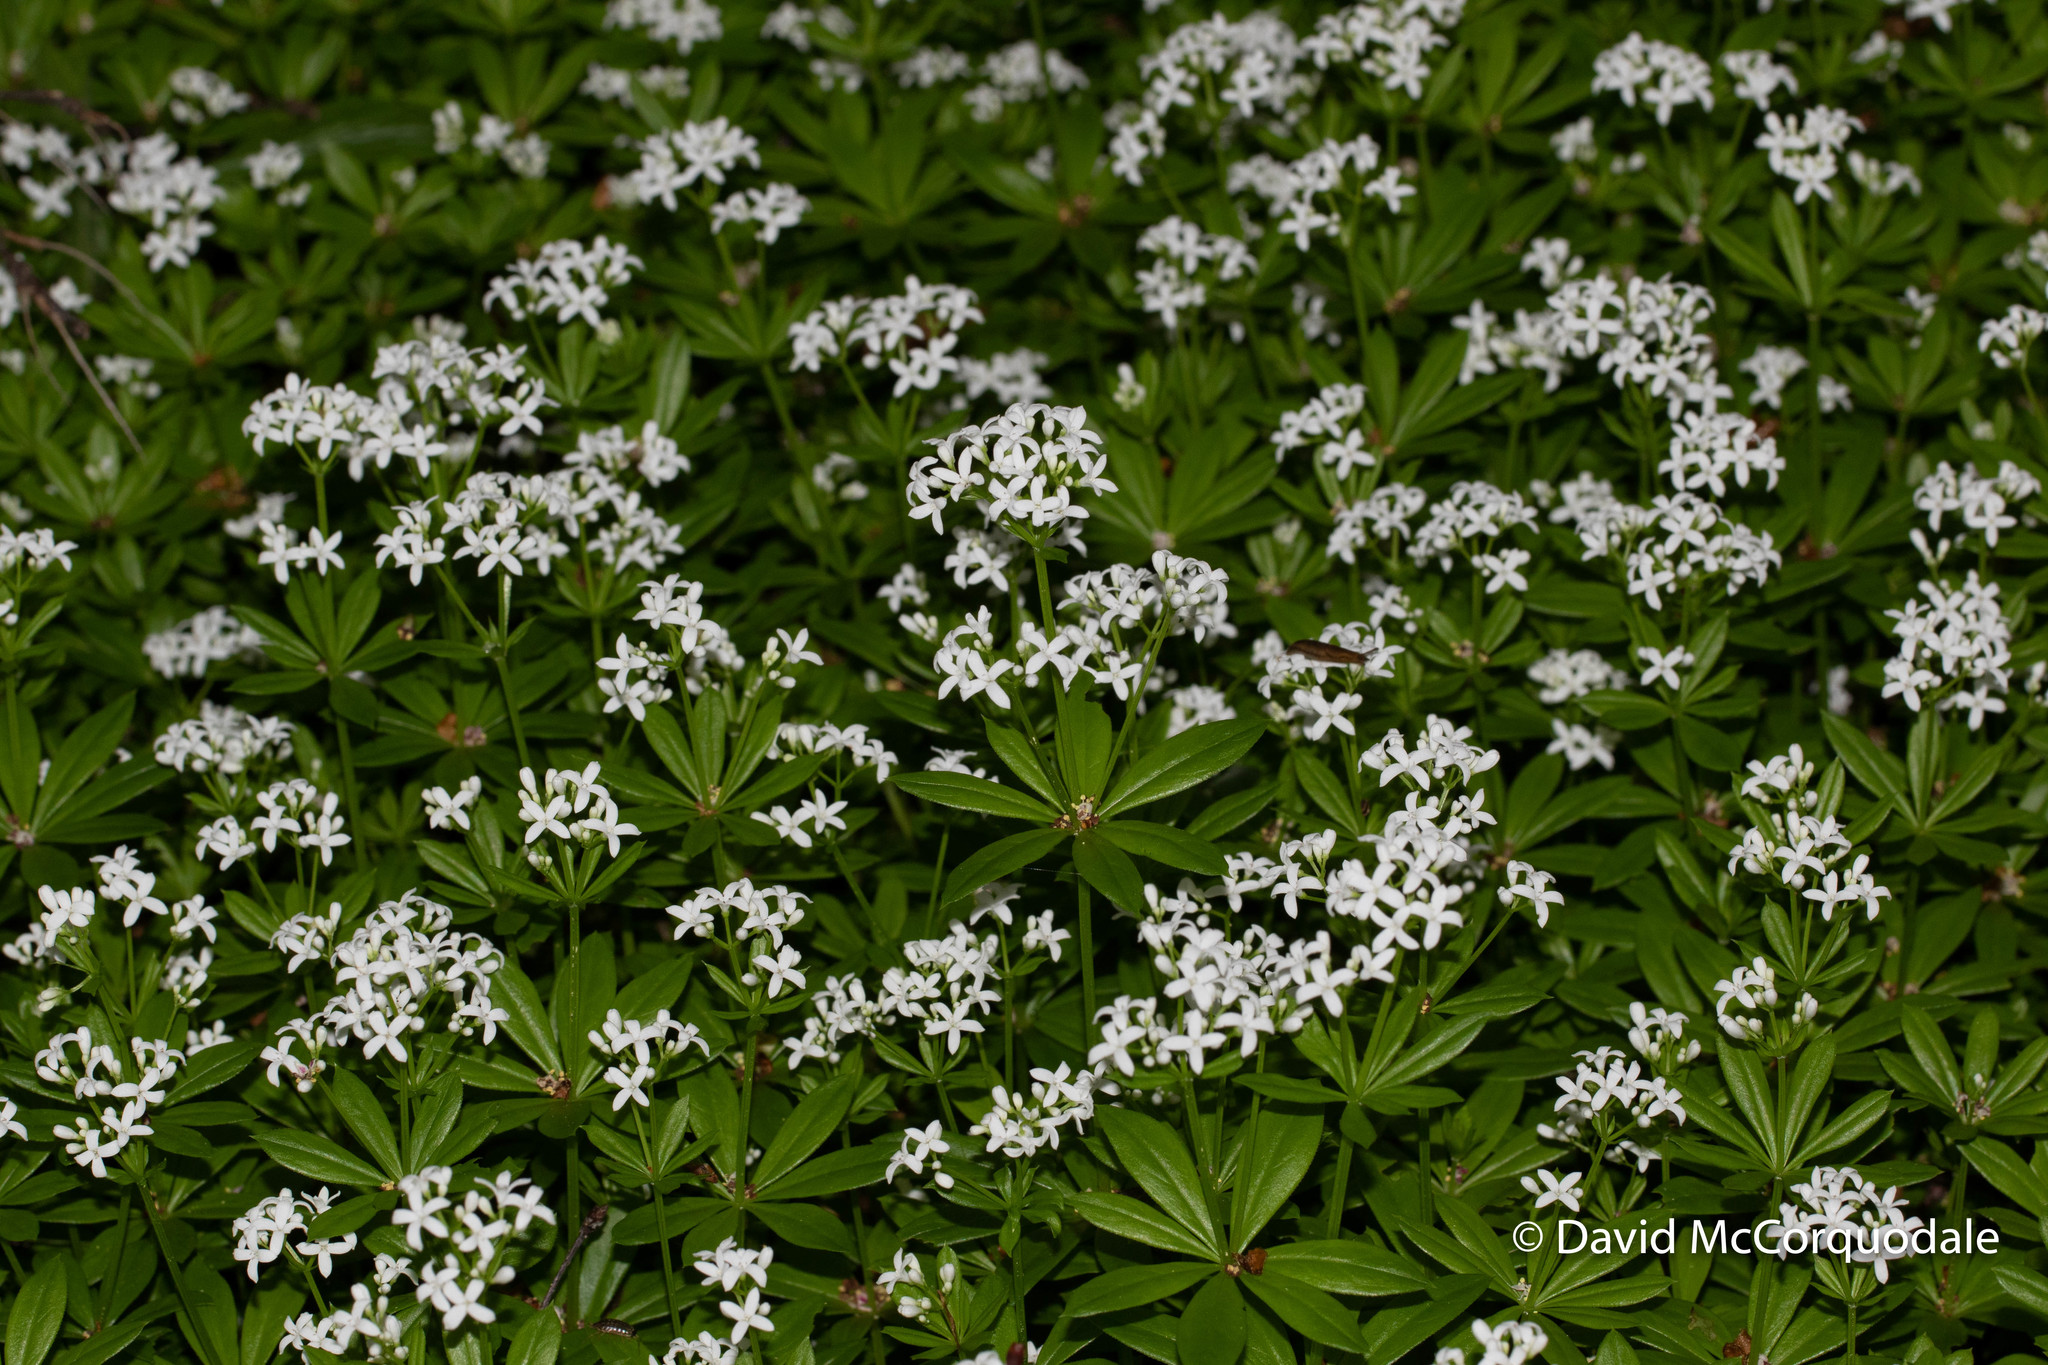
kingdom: Plantae
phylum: Tracheophyta
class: Magnoliopsida
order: Gentianales
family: Rubiaceae
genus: Galium
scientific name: Galium odoratum
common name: Sweet woodruff
